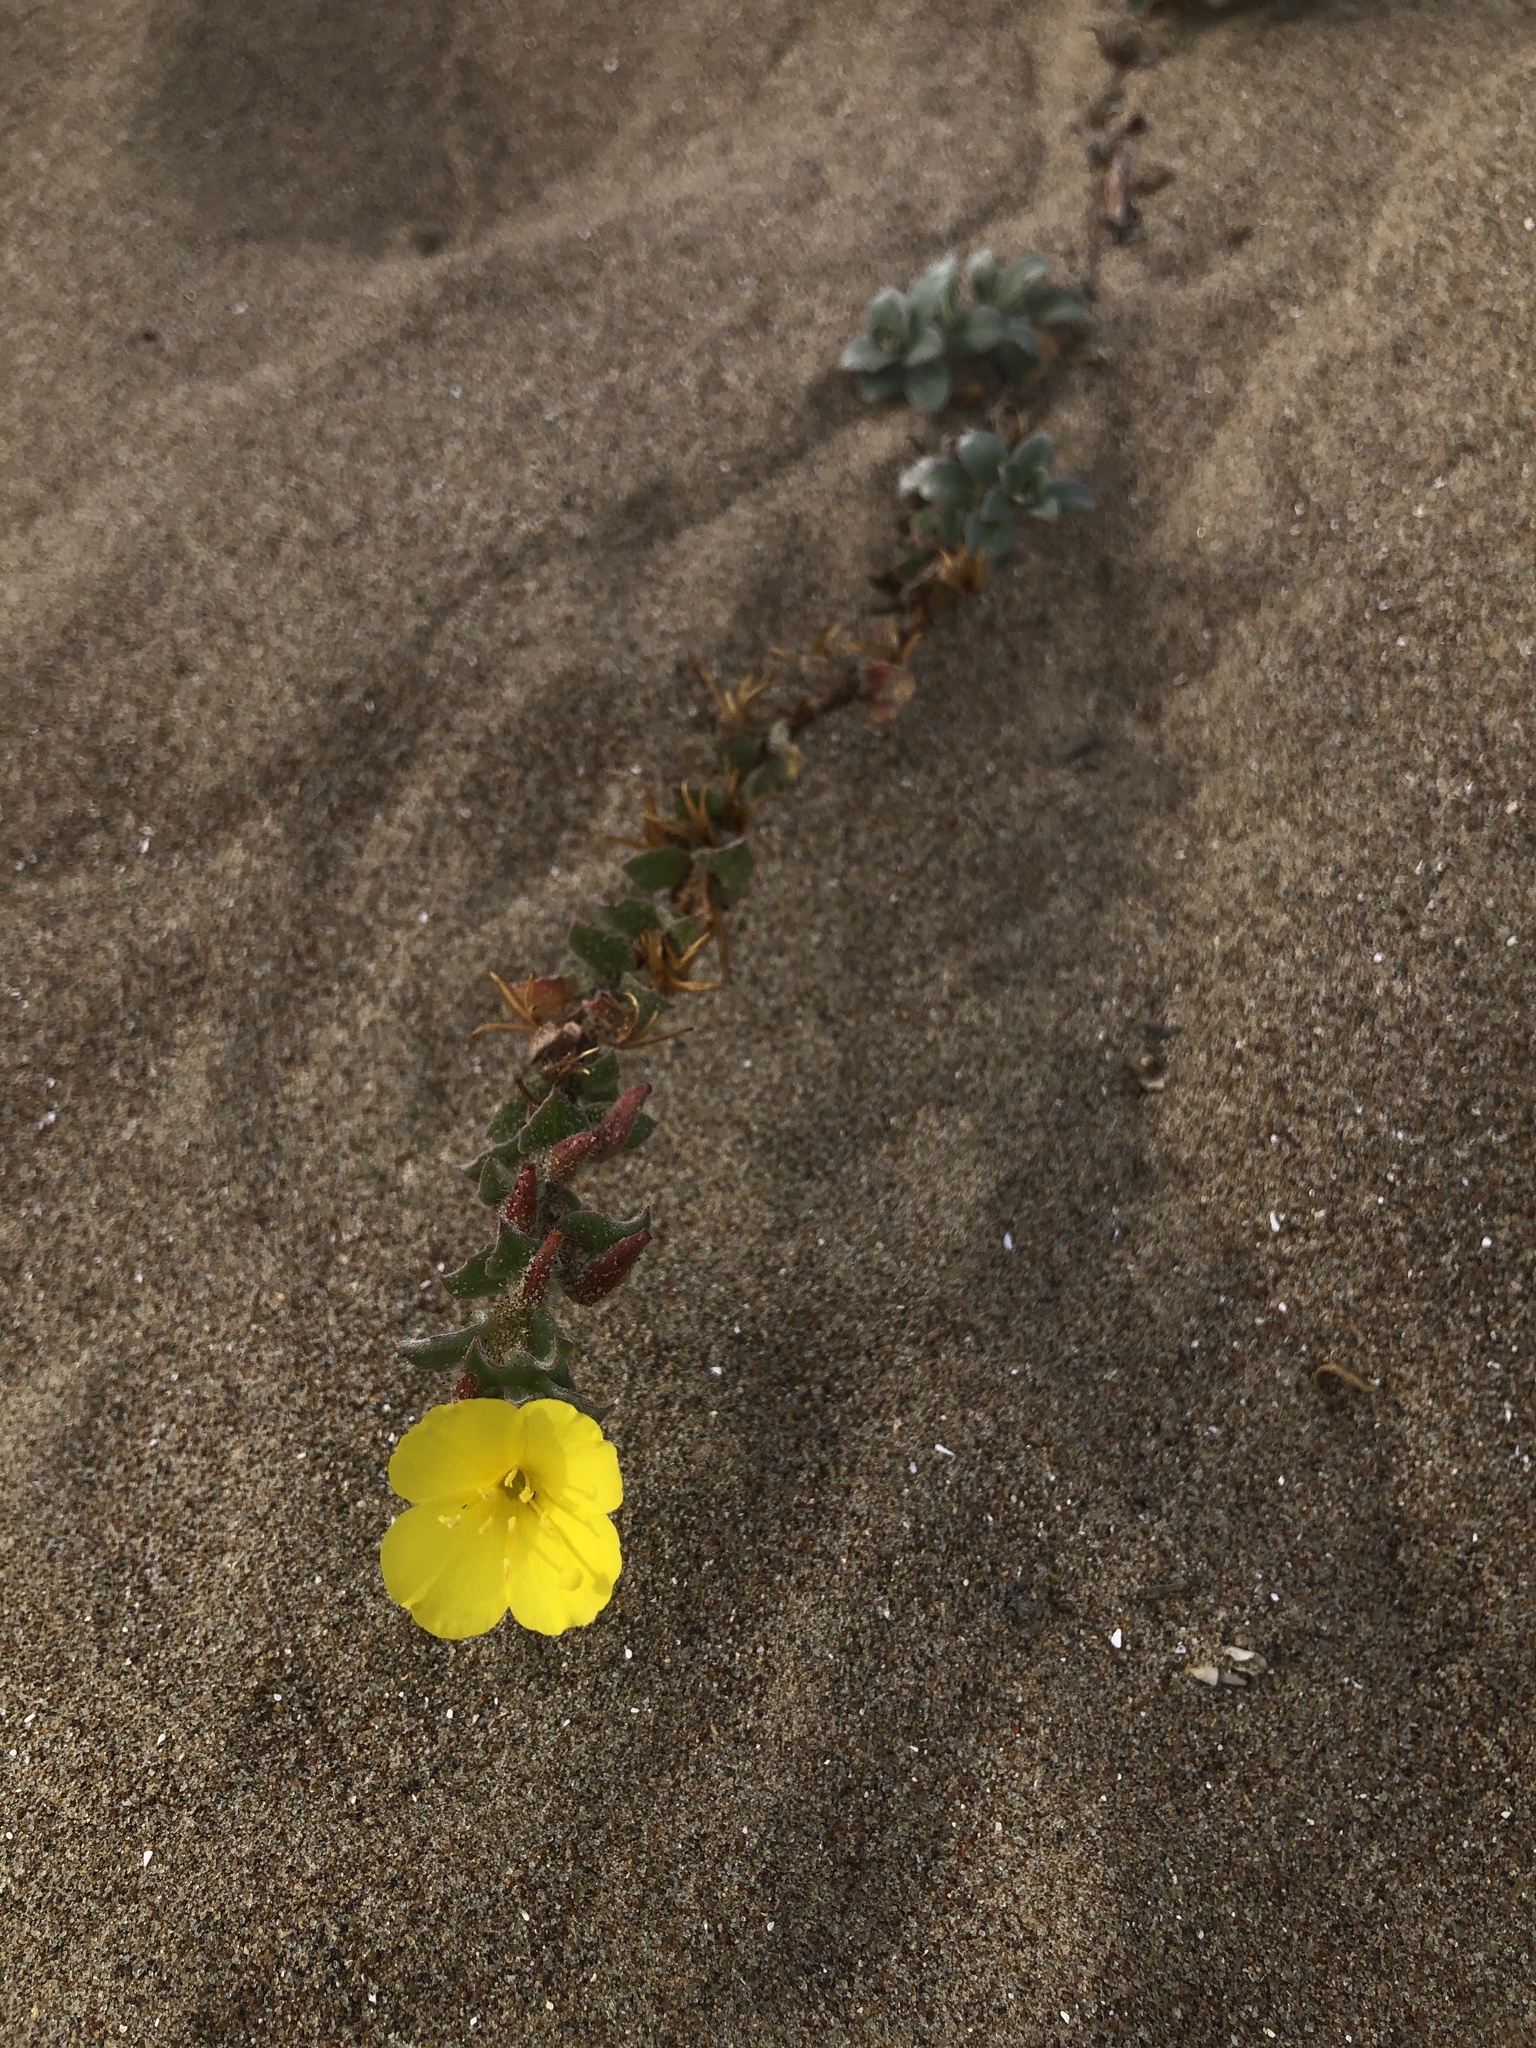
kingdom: Plantae
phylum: Tracheophyta
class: Magnoliopsida
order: Myrtales
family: Onagraceae
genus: Camissoniopsis
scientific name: Camissoniopsis cheiranthifolia
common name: Beach suncup
